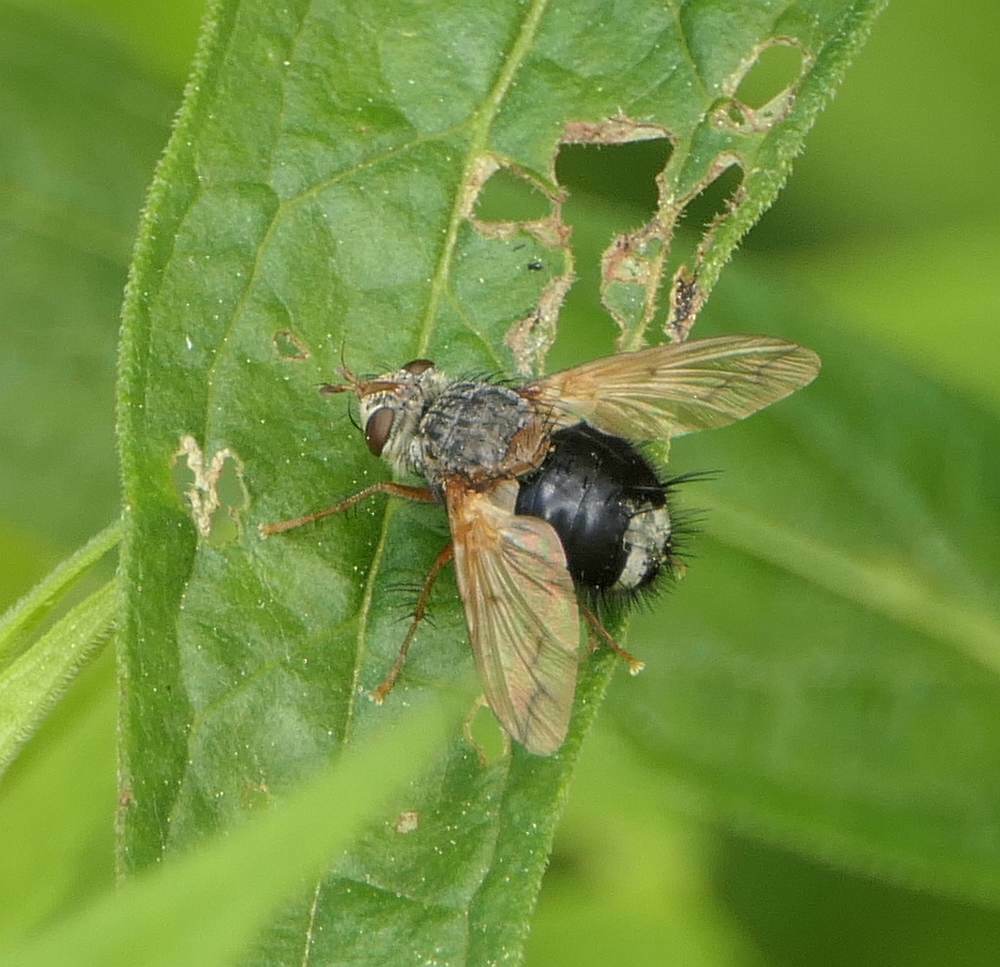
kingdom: Animalia
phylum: Arthropoda
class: Insecta
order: Diptera
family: Tachinidae
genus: Epalpus
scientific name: Epalpus signifer
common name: Early tachinid fly
